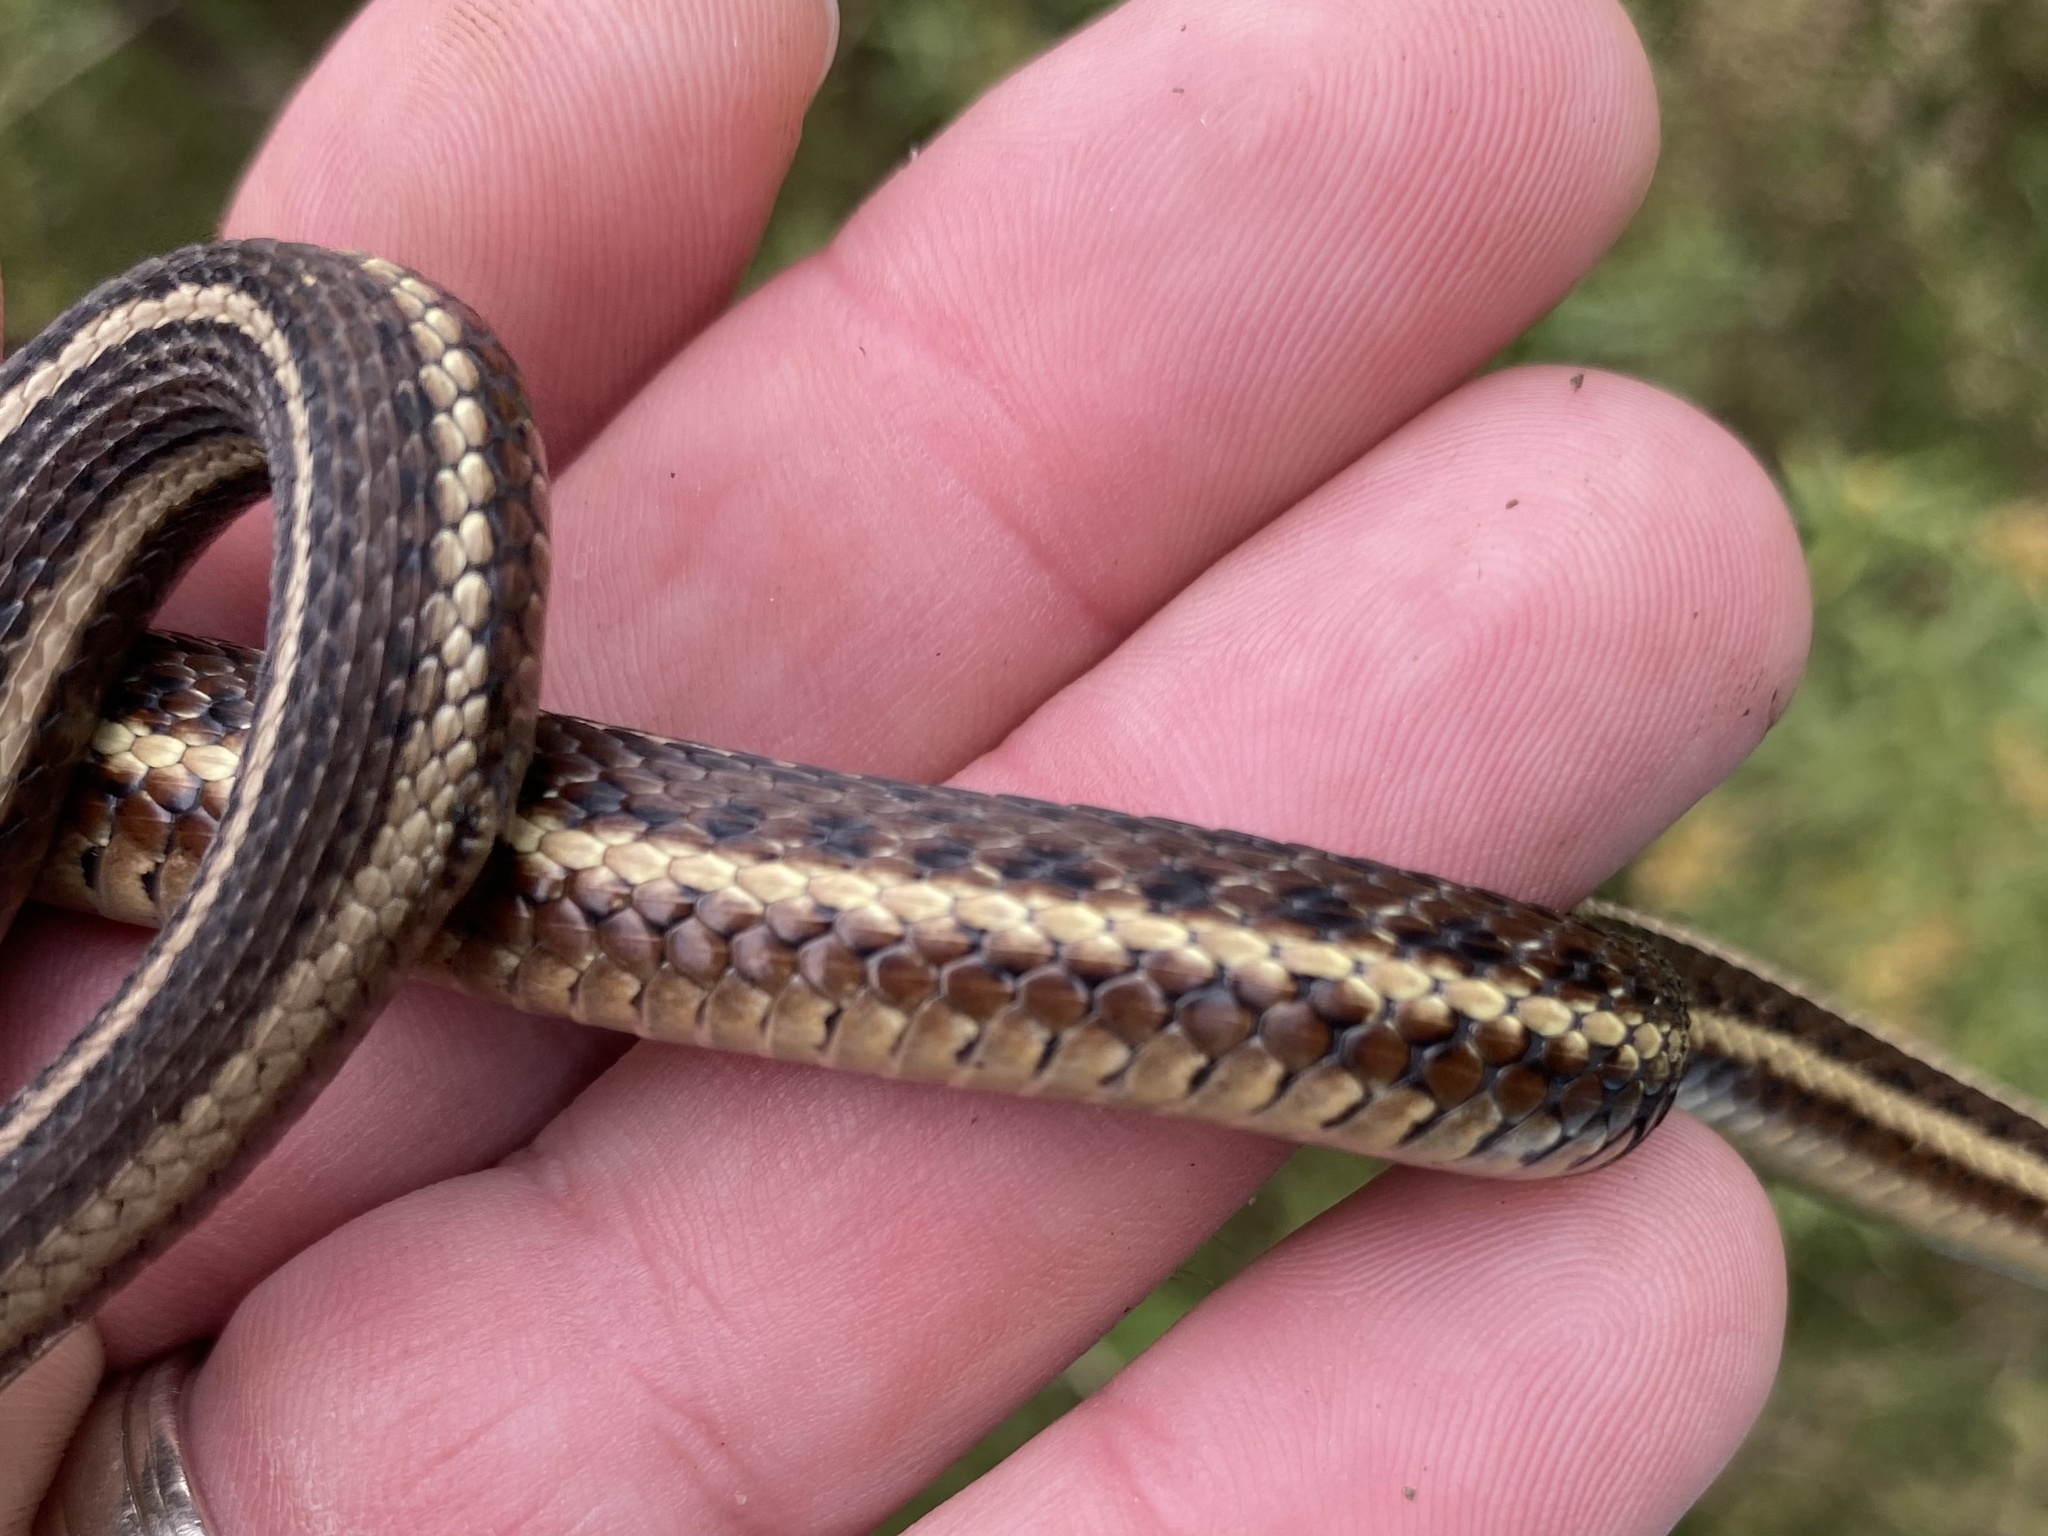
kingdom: Animalia
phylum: Chordata
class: Squamata
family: Colubridae
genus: Thamnophis
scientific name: Thamnophis butleri
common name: Butler's garter snake
